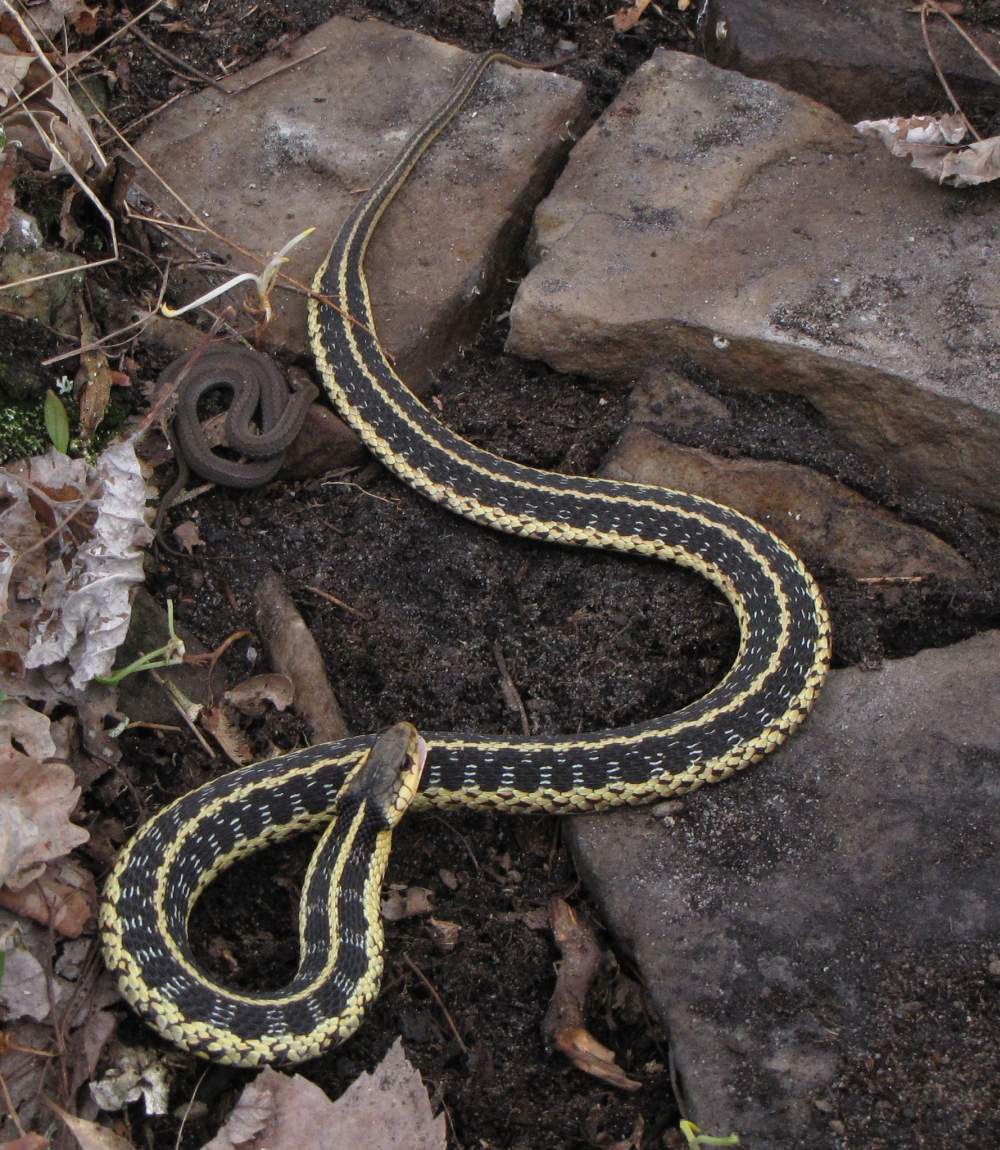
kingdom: Animalia
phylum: Chordata
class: Squamata
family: Colubridae
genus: Storeria
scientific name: Storeria occipitomaculata
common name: Redbelly snake
